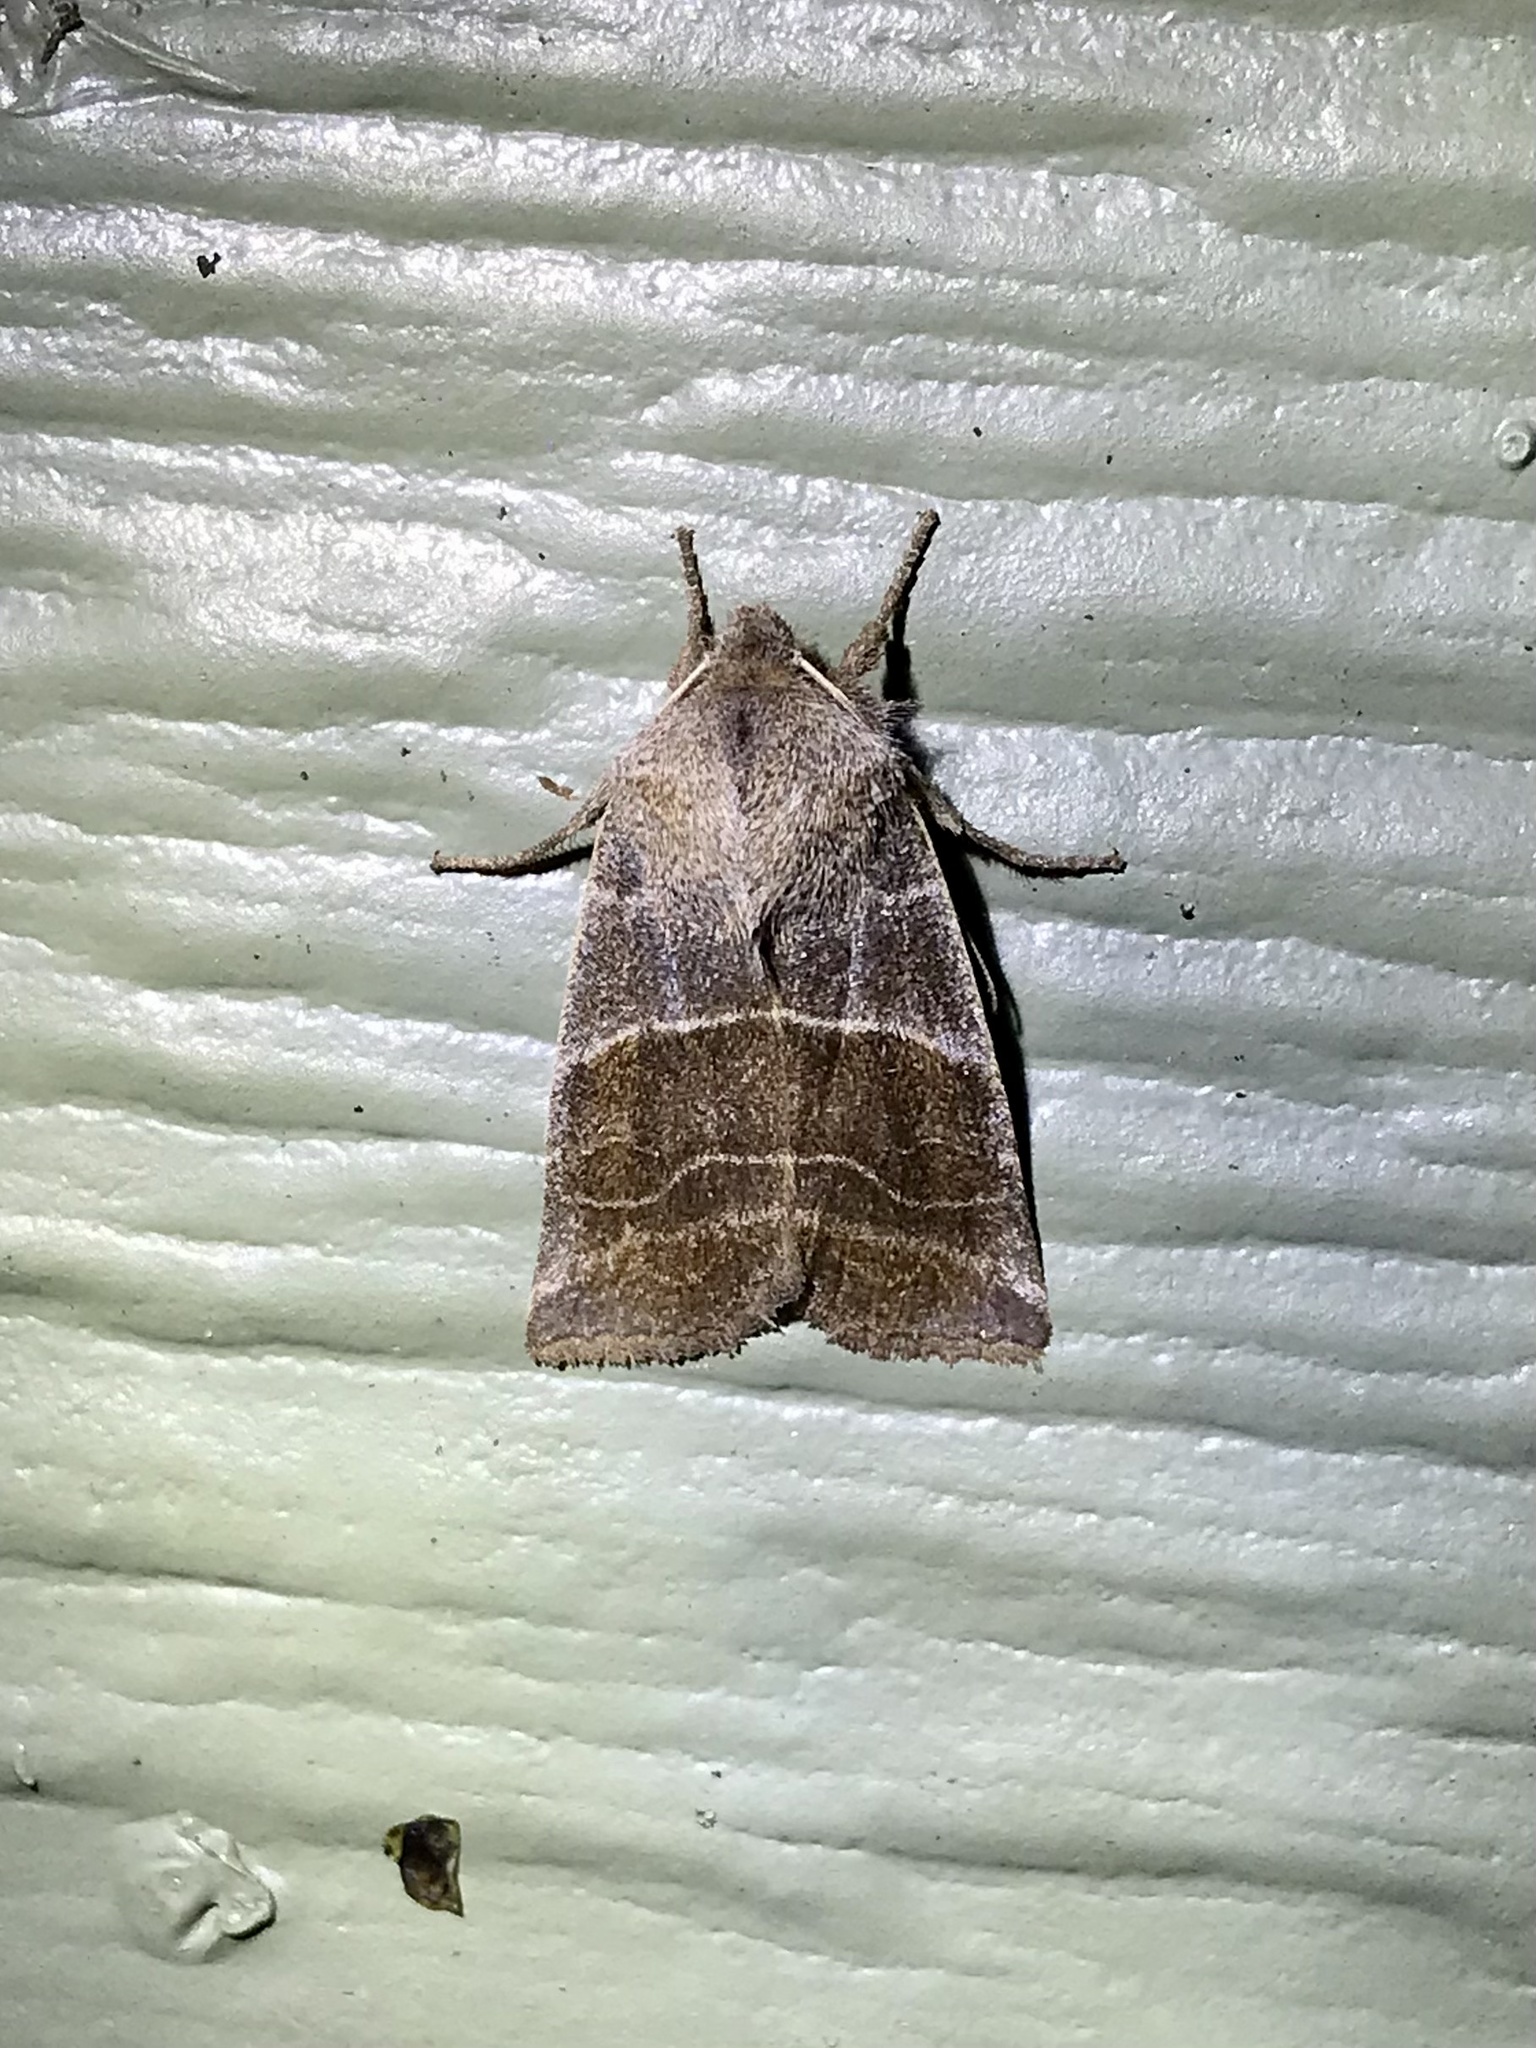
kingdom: Animalia
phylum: Arthropoda
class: Insecta
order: Lepidoptera
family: Noctuidae
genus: Eupsilia
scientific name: Eupsilia devia
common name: Lost sallow
